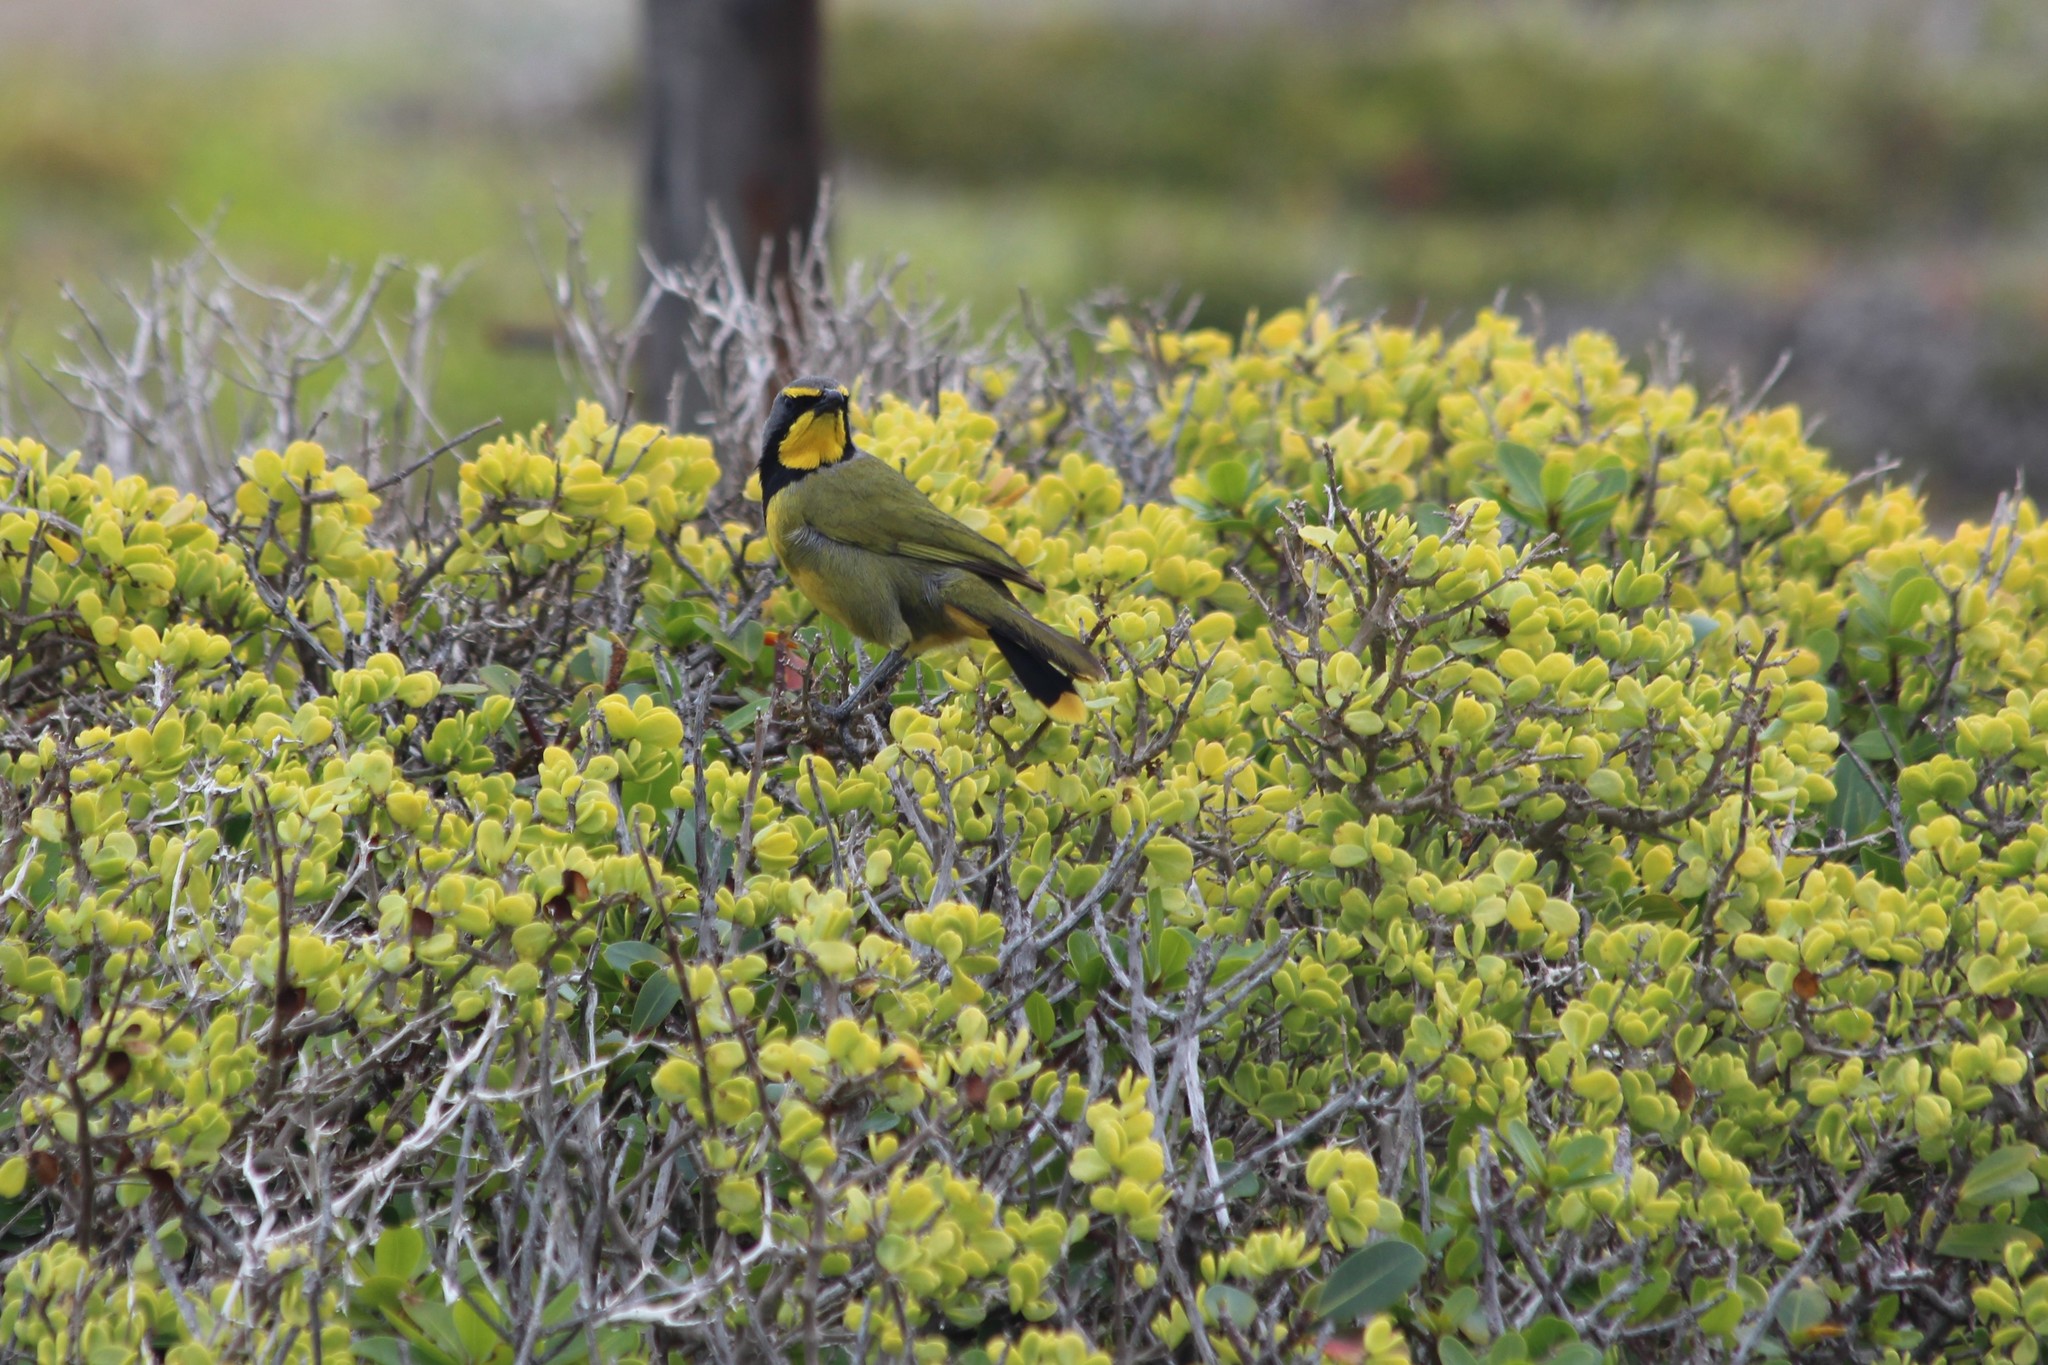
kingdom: Animalia
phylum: Chordata
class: Aves
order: Passeriformes
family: Malaconotidae
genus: Telophorus
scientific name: Telophorus zeylonus
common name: Bokmakierie
